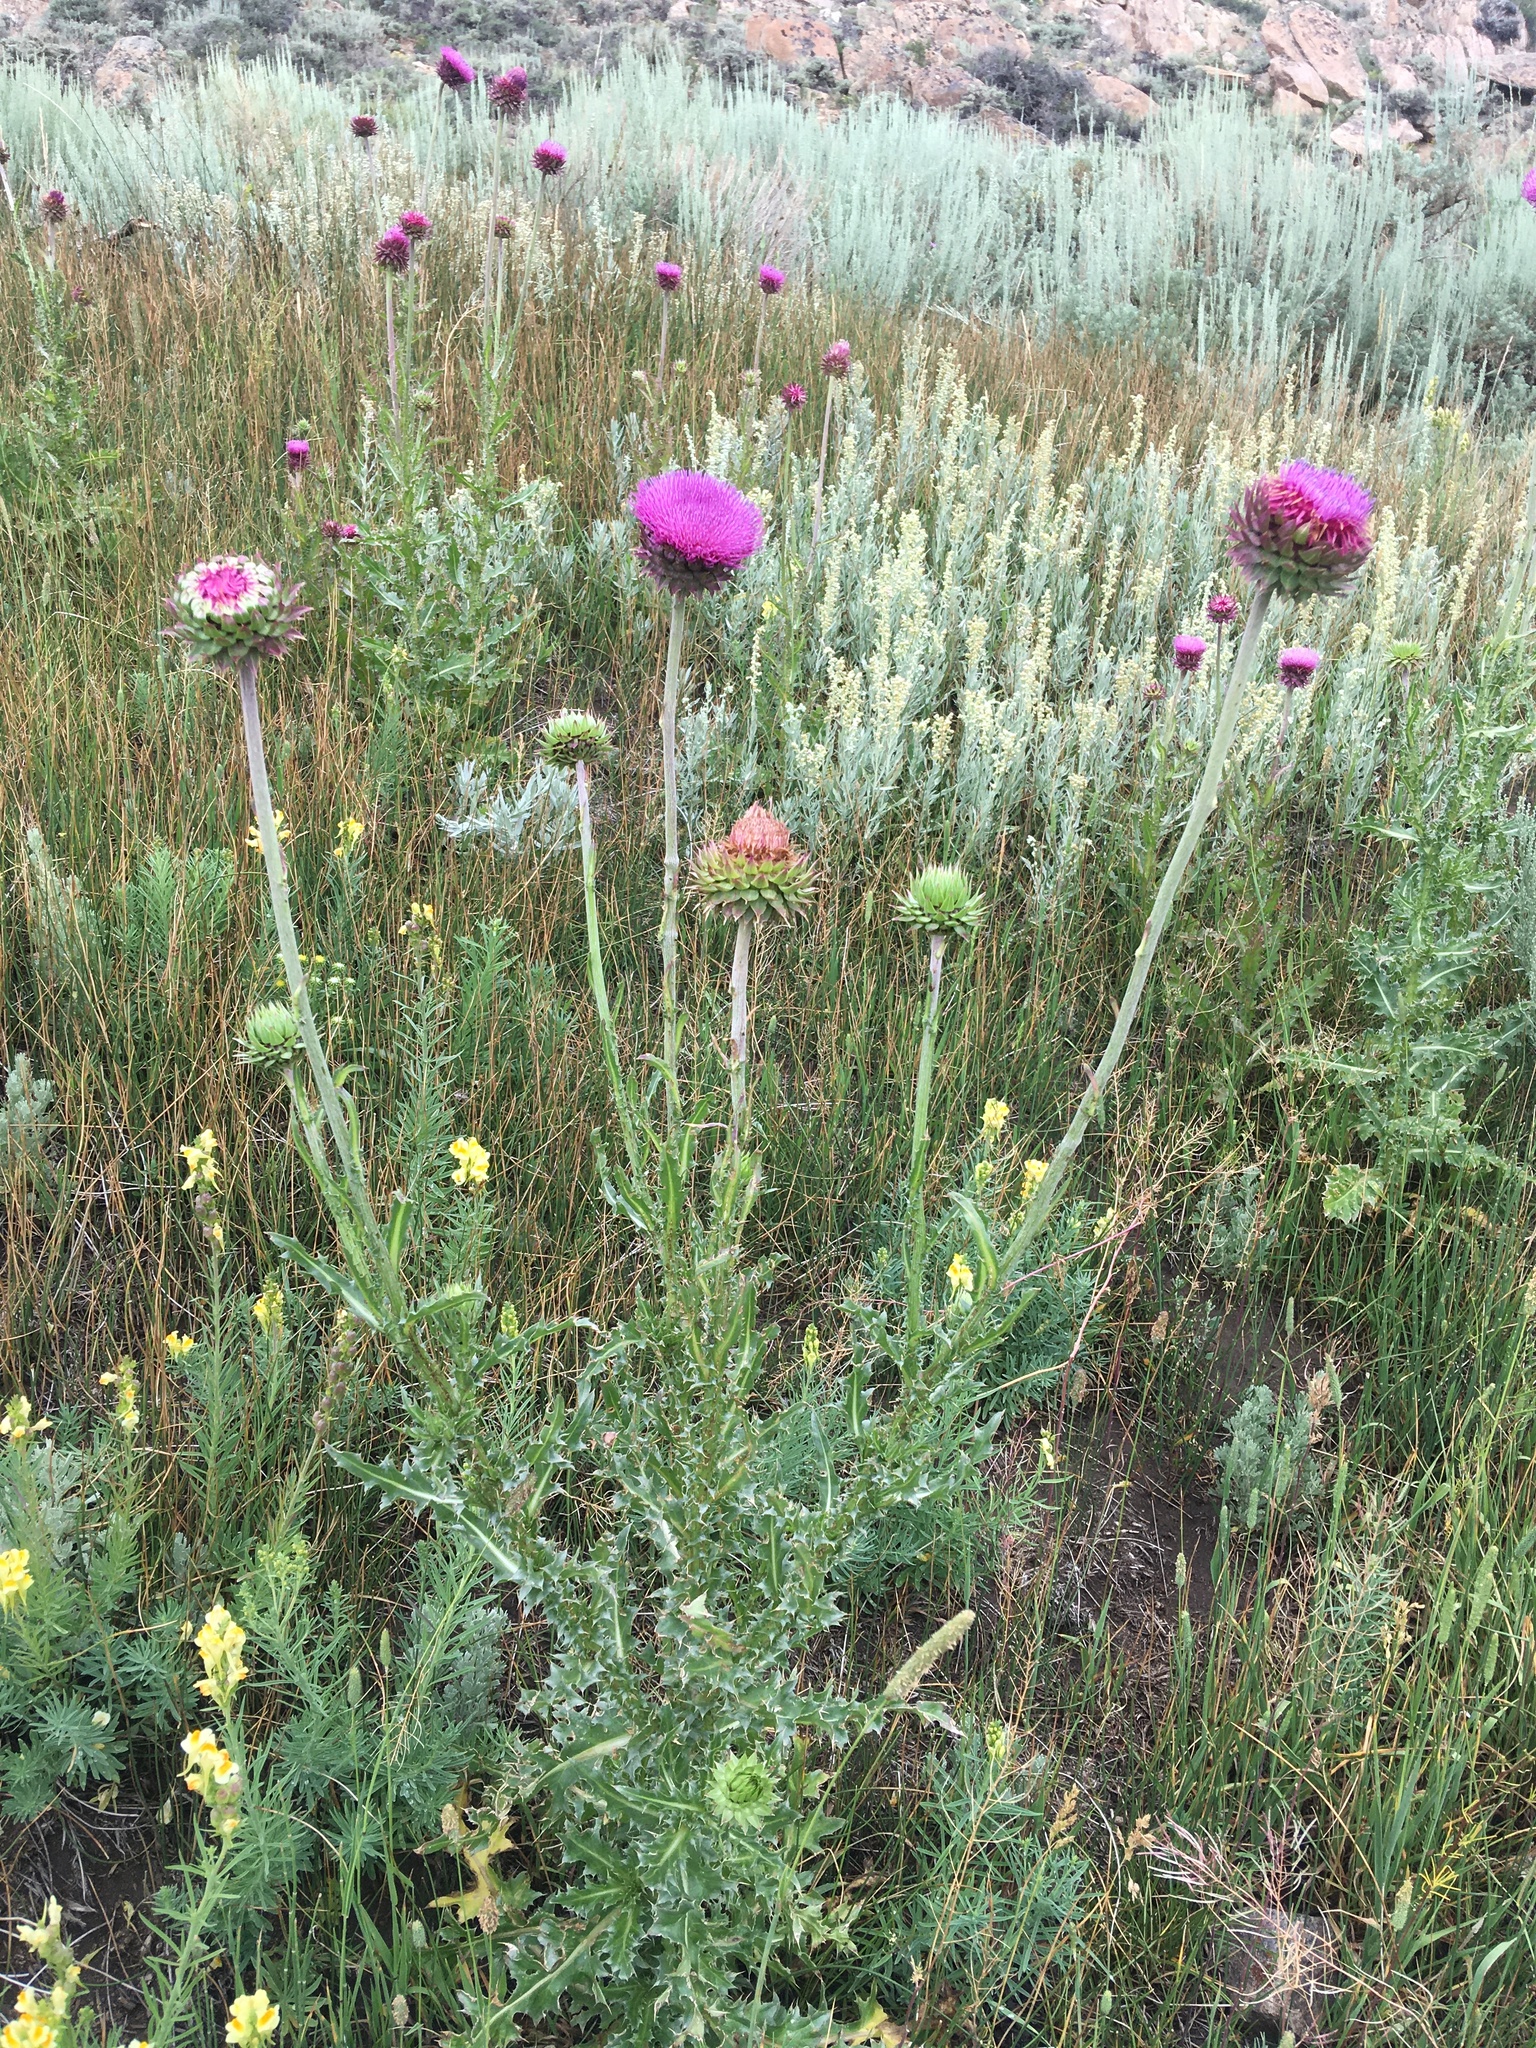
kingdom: Plantae
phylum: Tracheophyta
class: Magnoliopsida
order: Asterales
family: Asteraceae
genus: Carduus
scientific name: Carduus nutans
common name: Musk thistle
